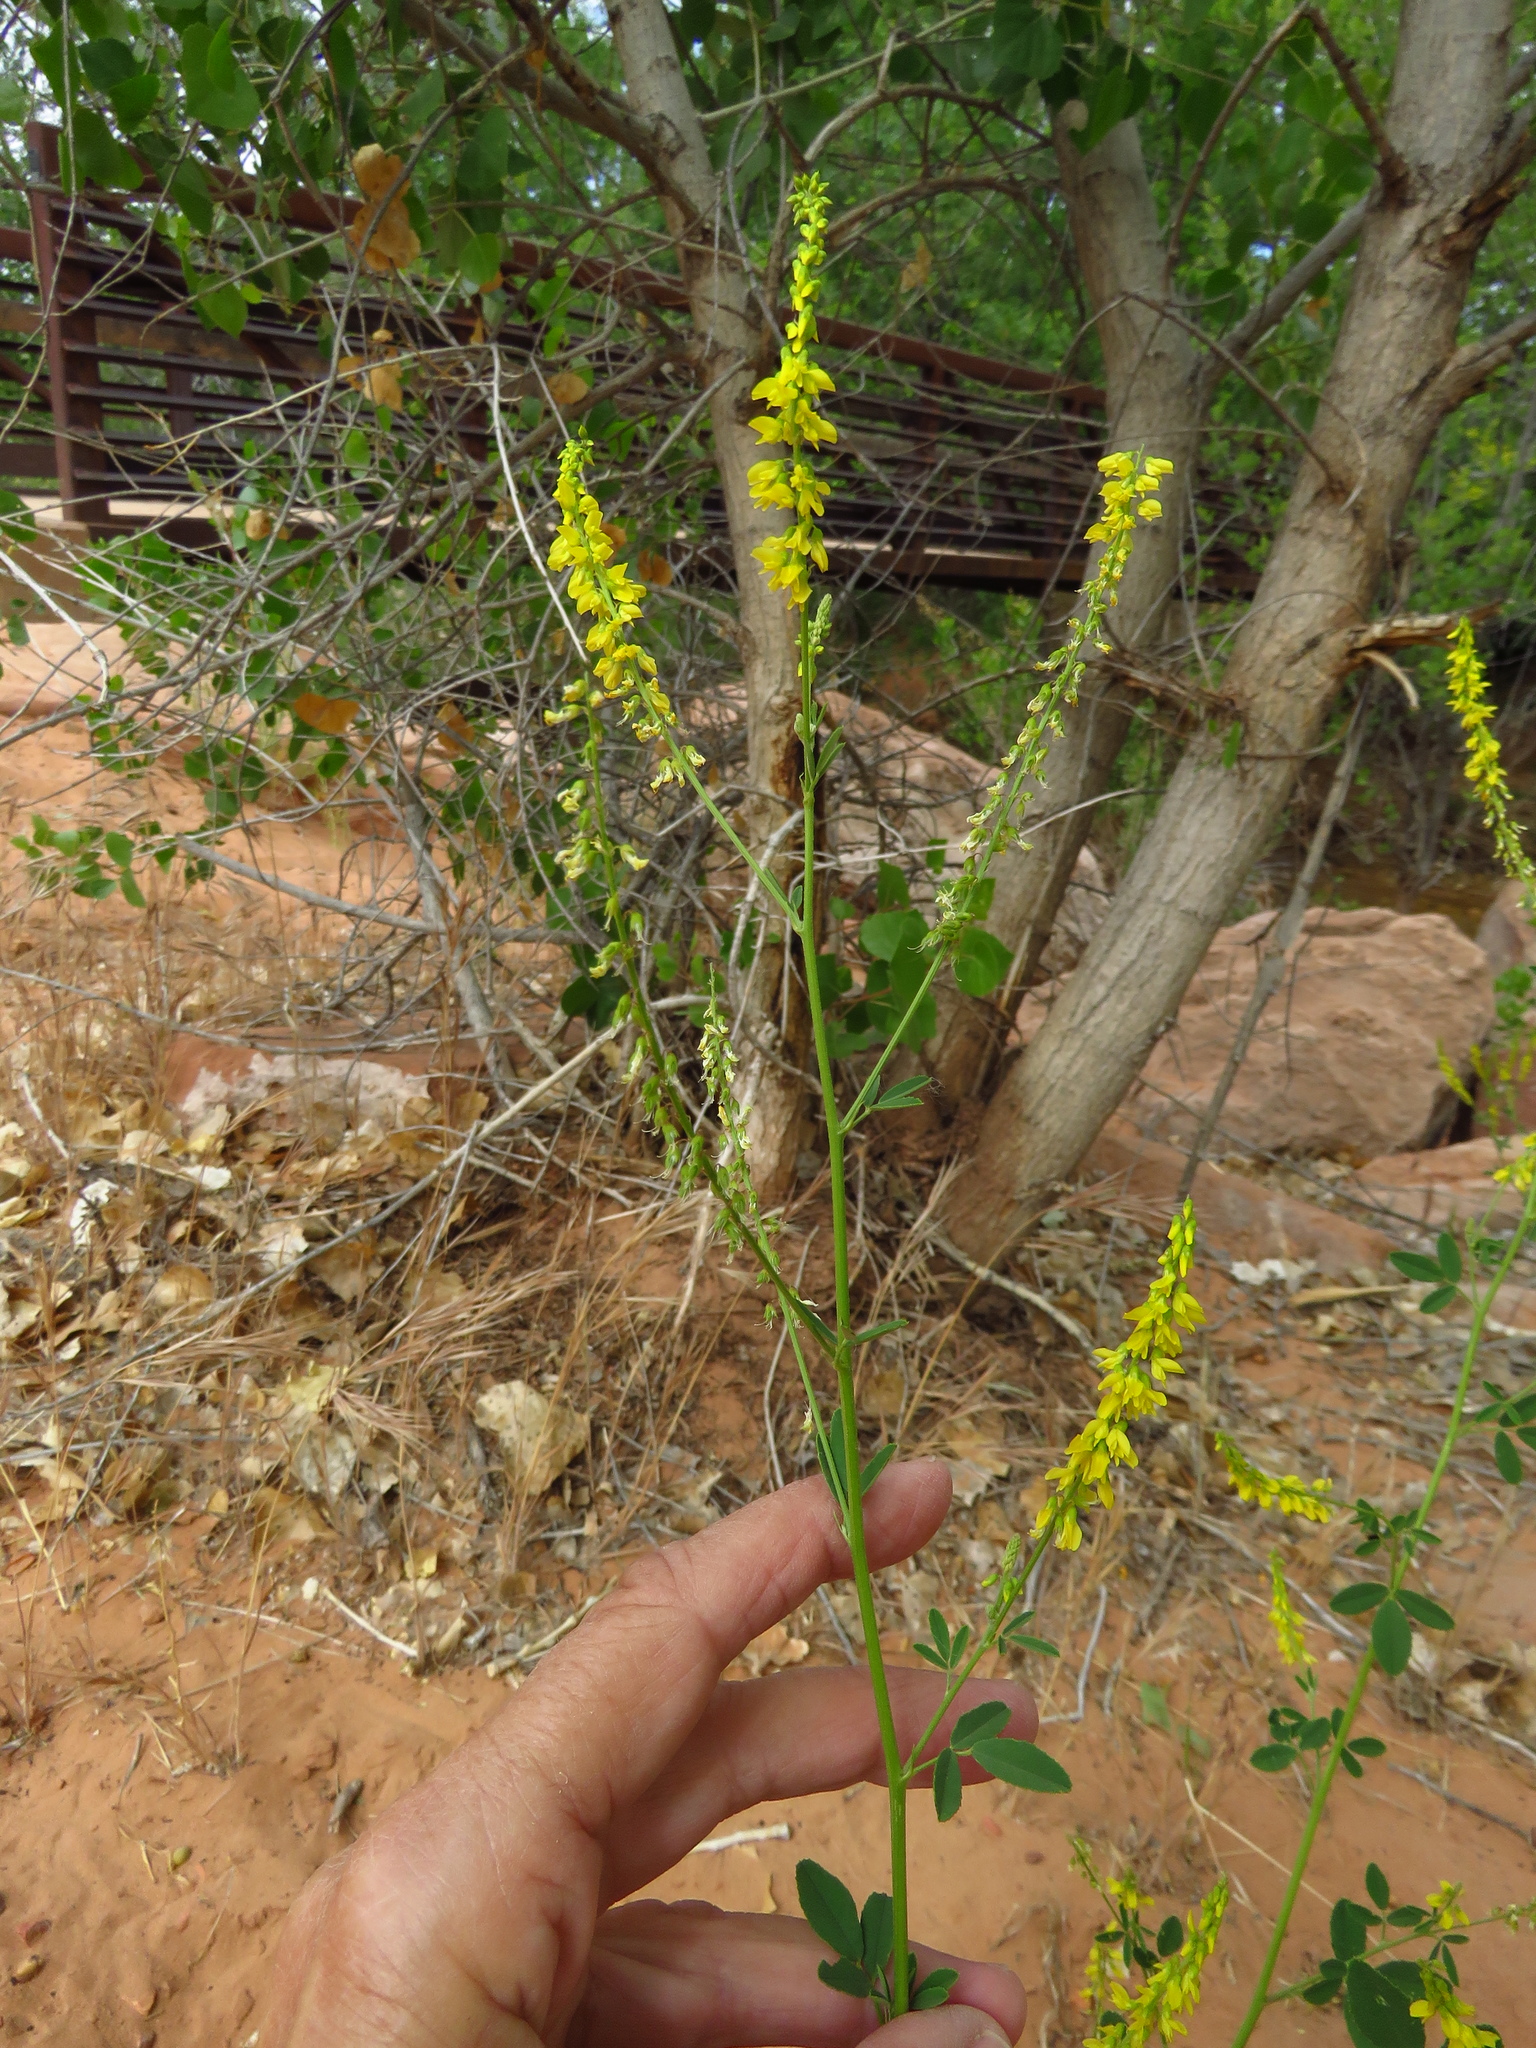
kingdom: Plantae
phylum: Tracheophyta
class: Magnoliopsida
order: Fabales
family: Fabaceae
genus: Melilotus
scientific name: Melilotus officinalis
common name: Sweetclover
